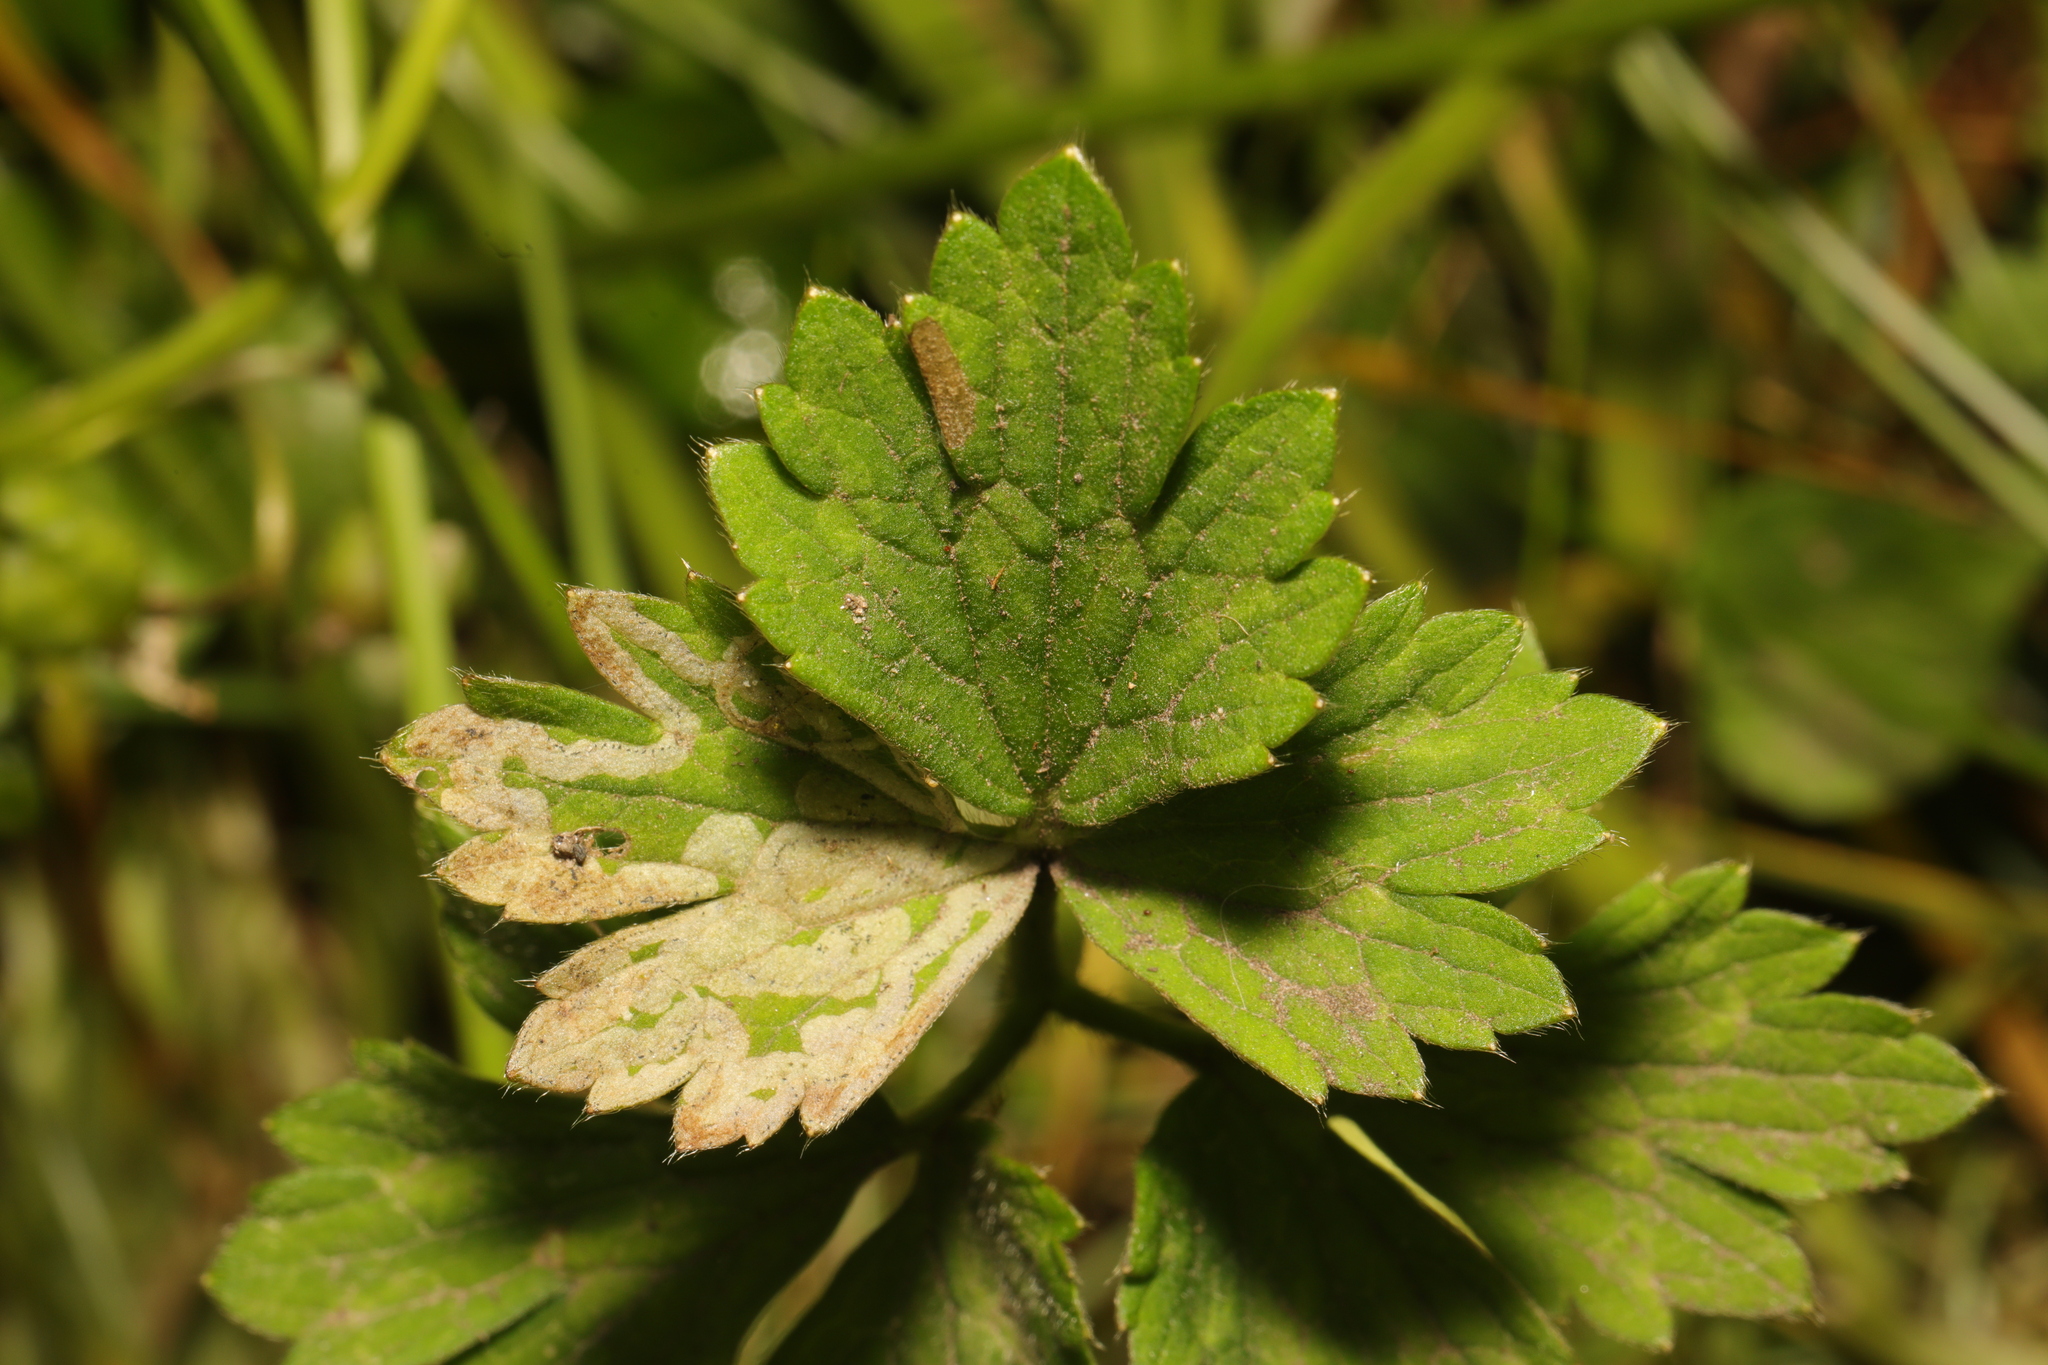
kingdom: Animalia
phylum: Arthropoda
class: Insecta
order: Diptera
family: Agromyzidae
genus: Phytomyza
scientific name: Phytomyza ranunculi
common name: Leaf-miner fly
